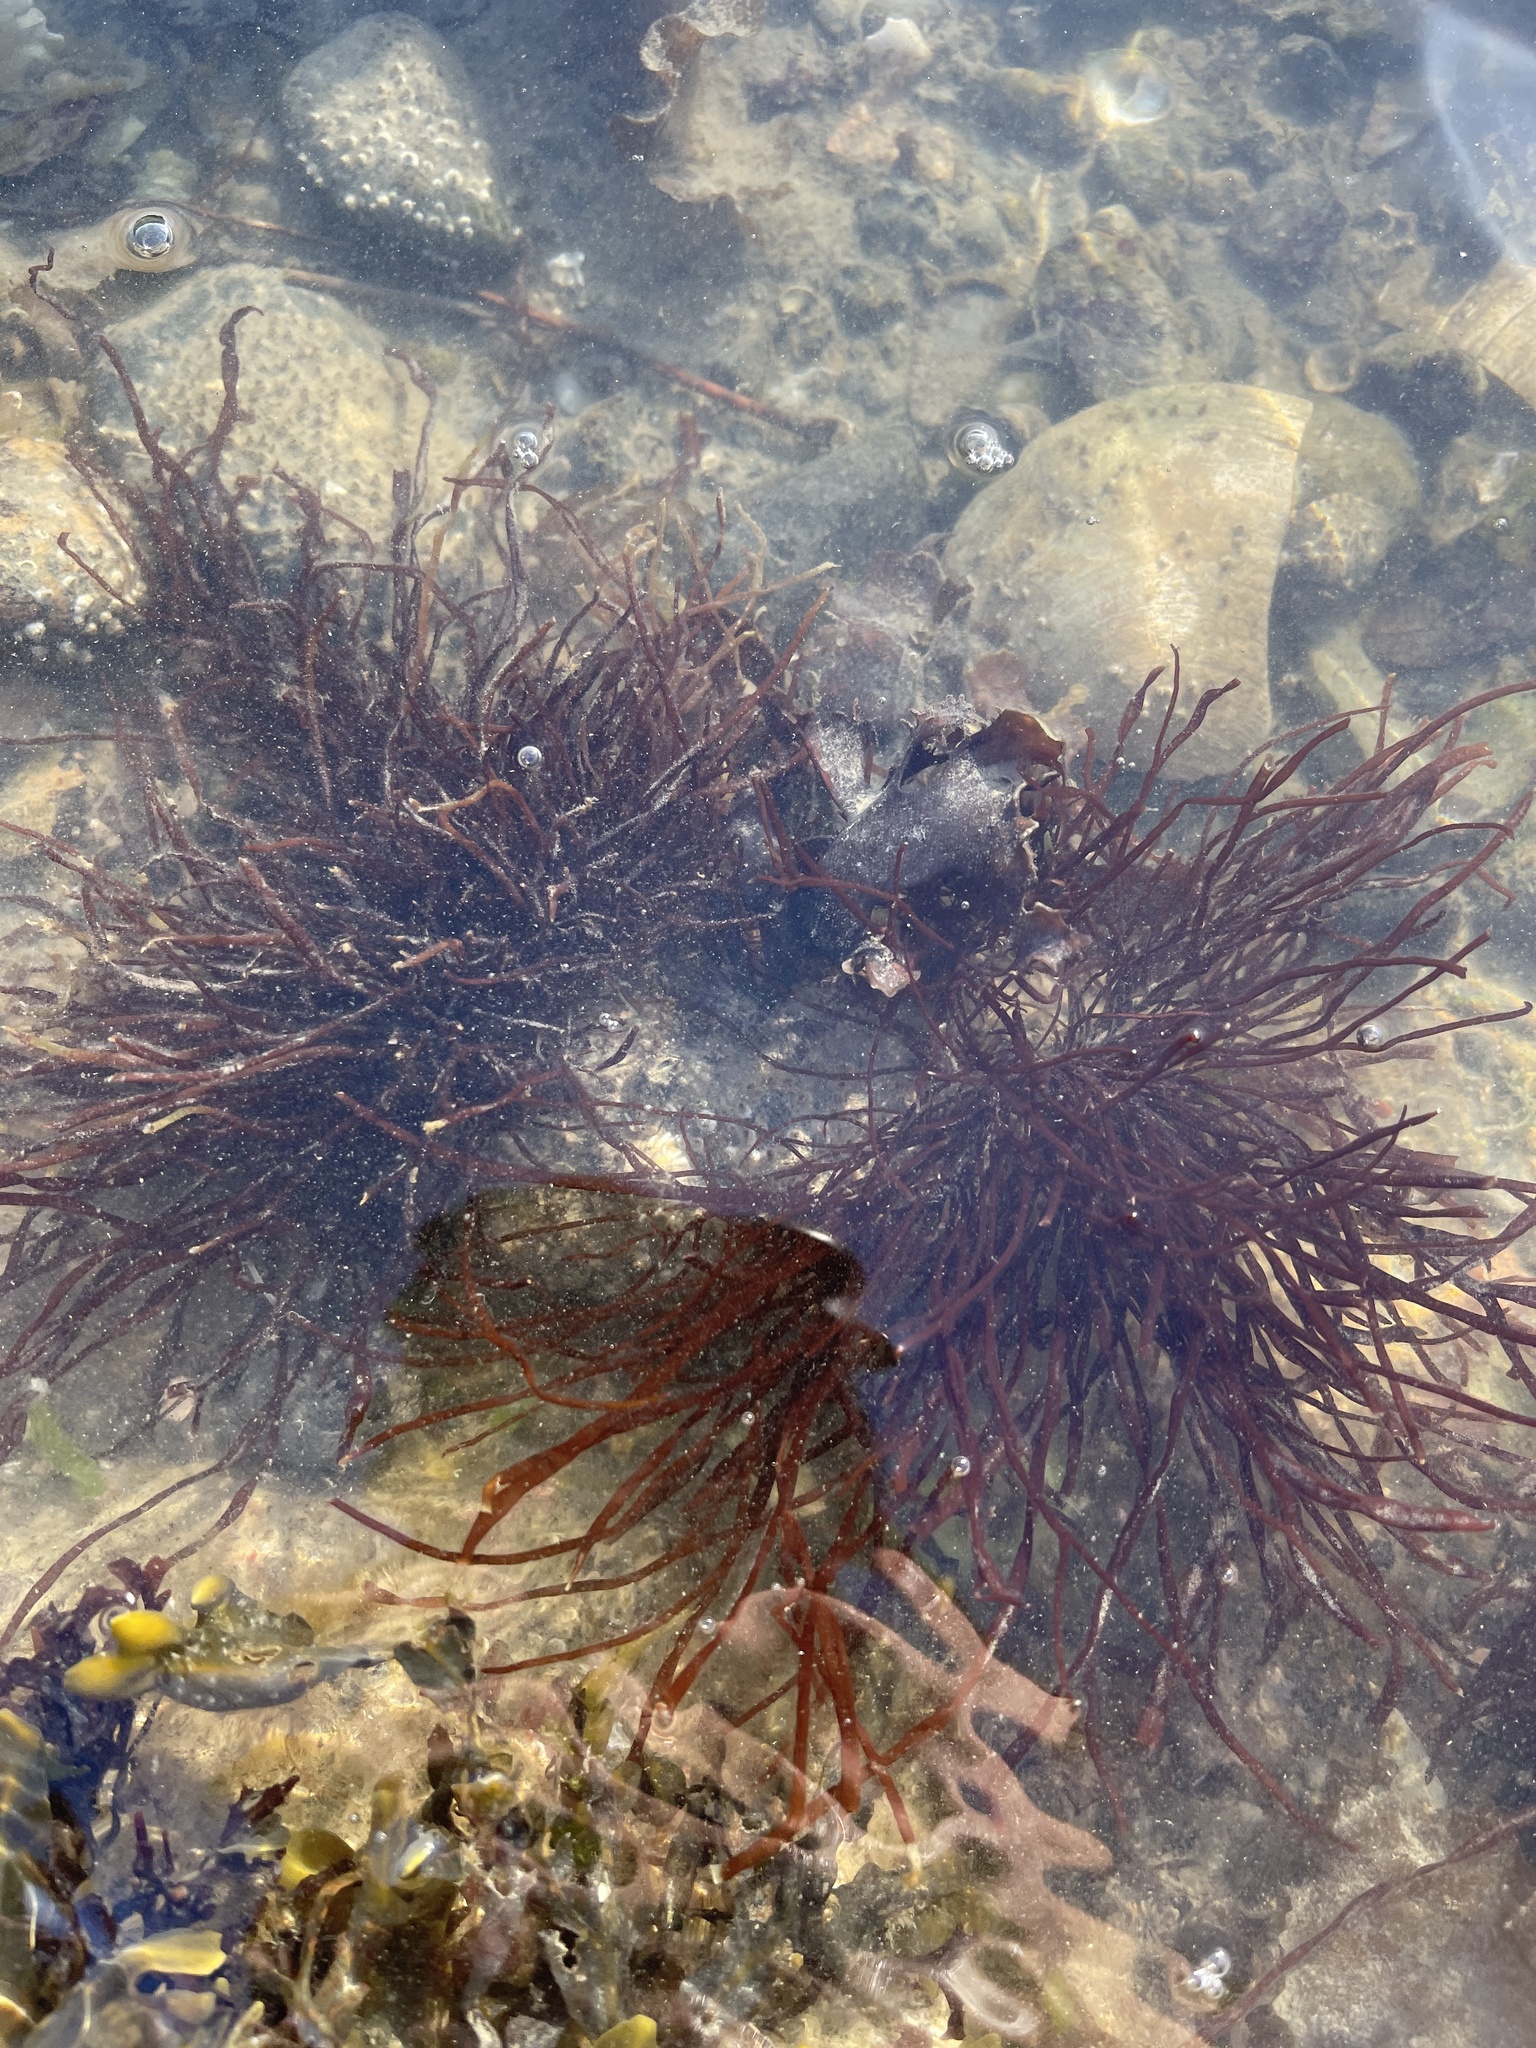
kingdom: Plantae
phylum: Rhodophyta
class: Florideophyceae
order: Gigartinales
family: Dumontiaceae
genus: Dumontia
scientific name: Dumontia contorta
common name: Worm weed
